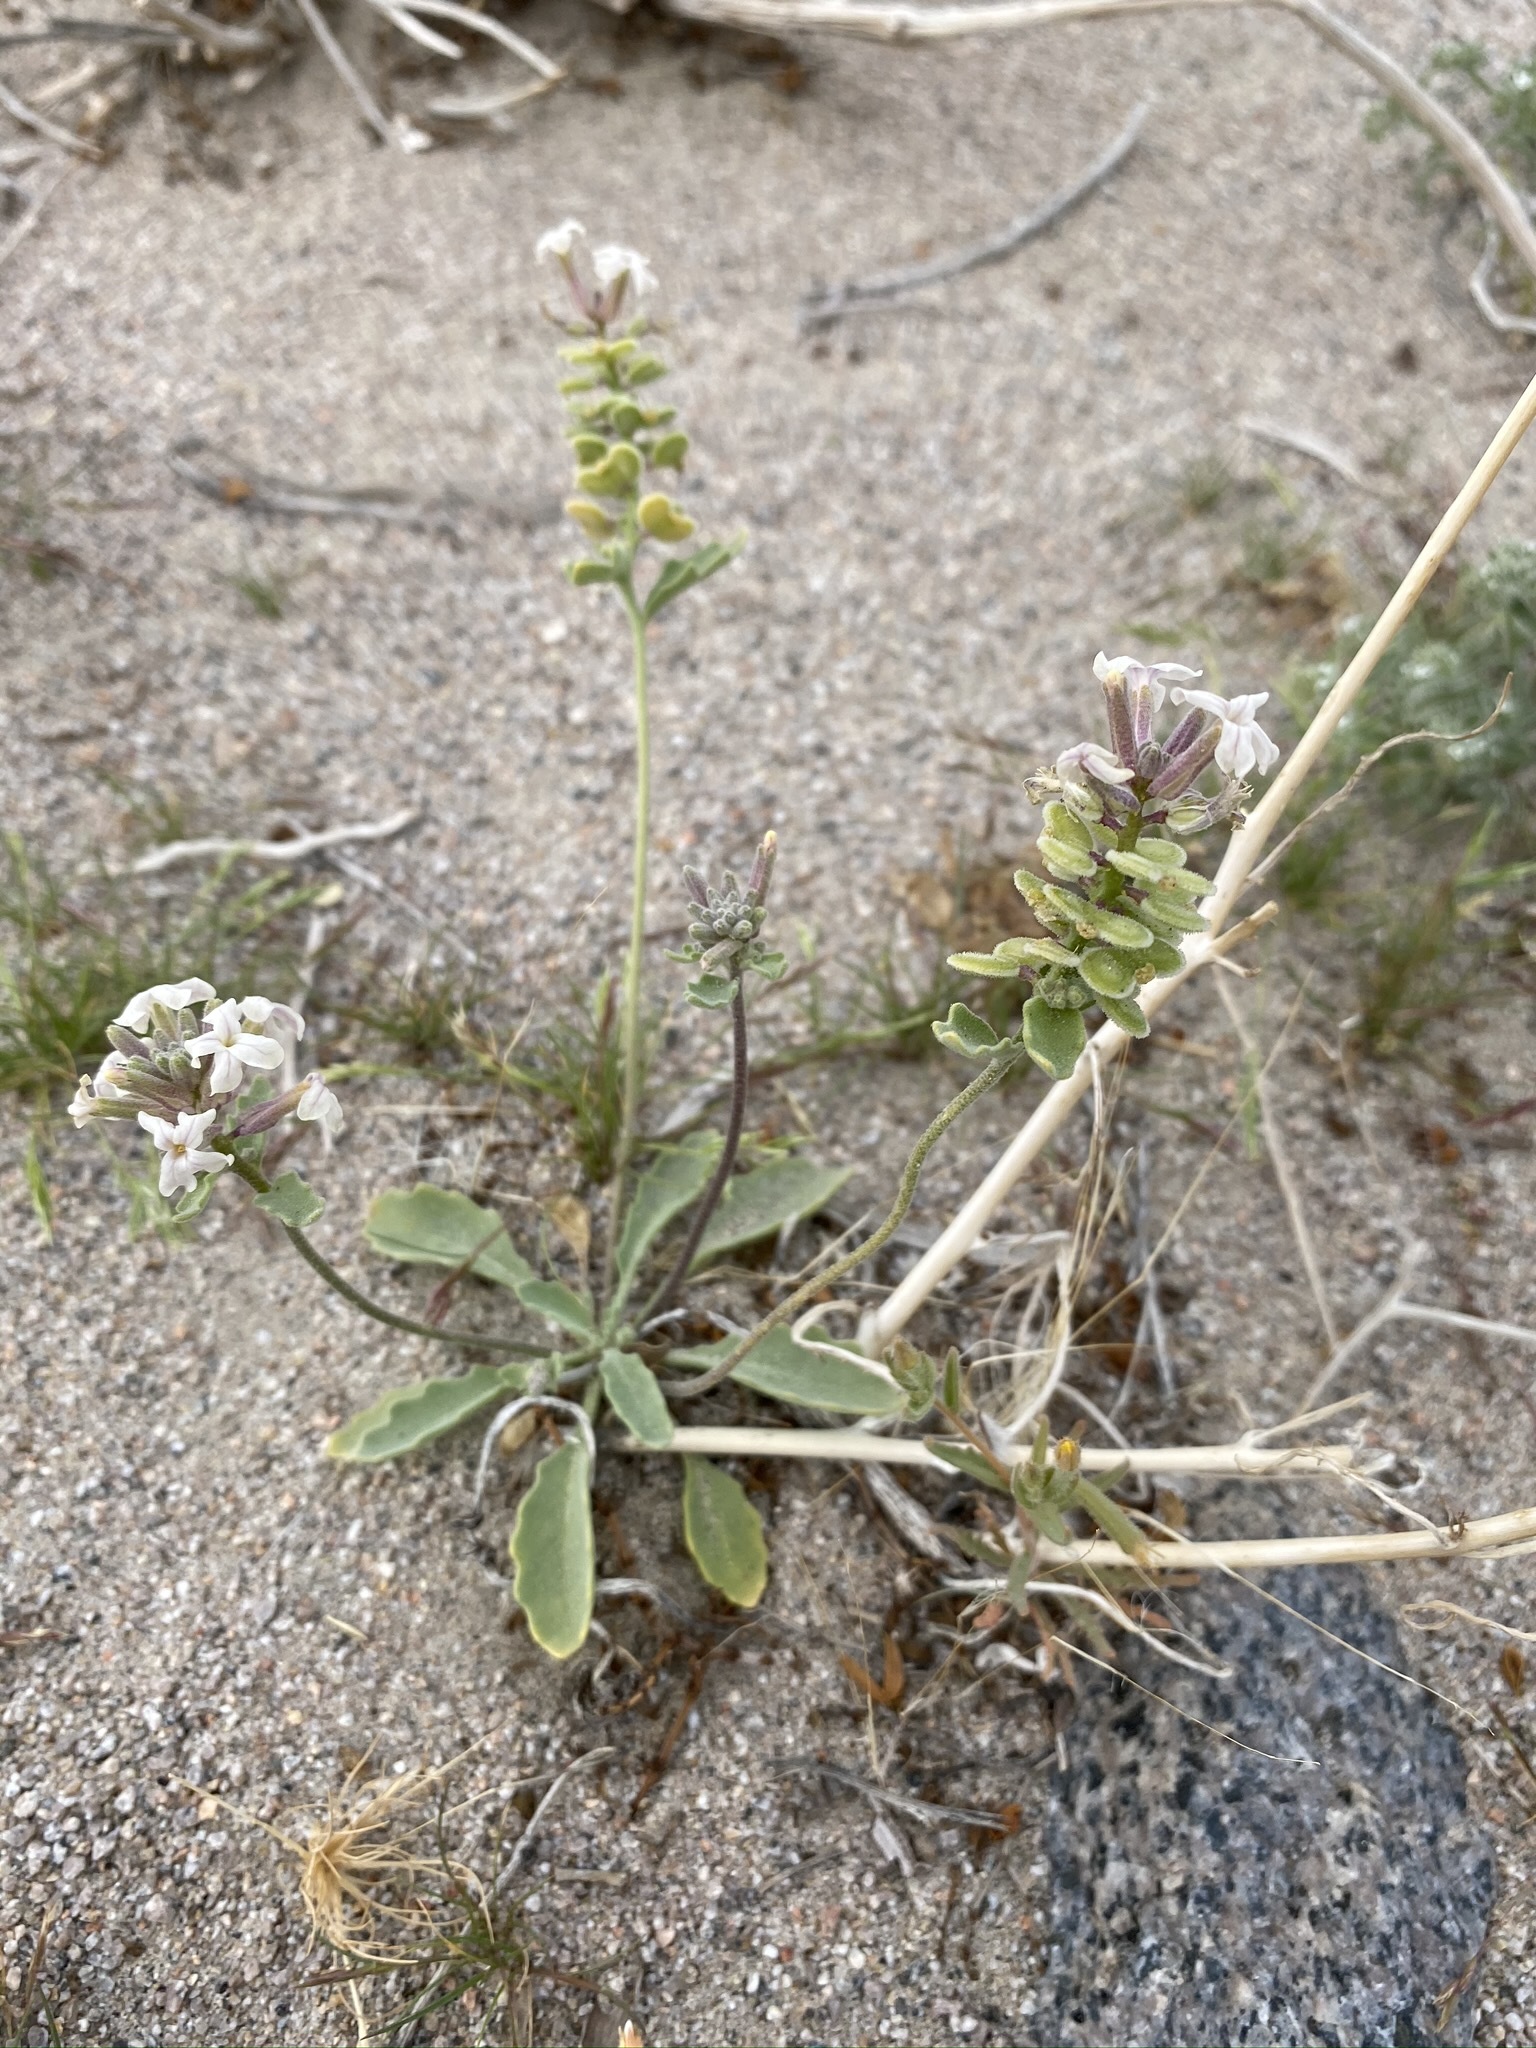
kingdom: Plantae
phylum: Tracheophyta
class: Magnoliopsida
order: Brassicales
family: Brassicaceae
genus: Dithyrea
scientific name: Dithyrea californica
